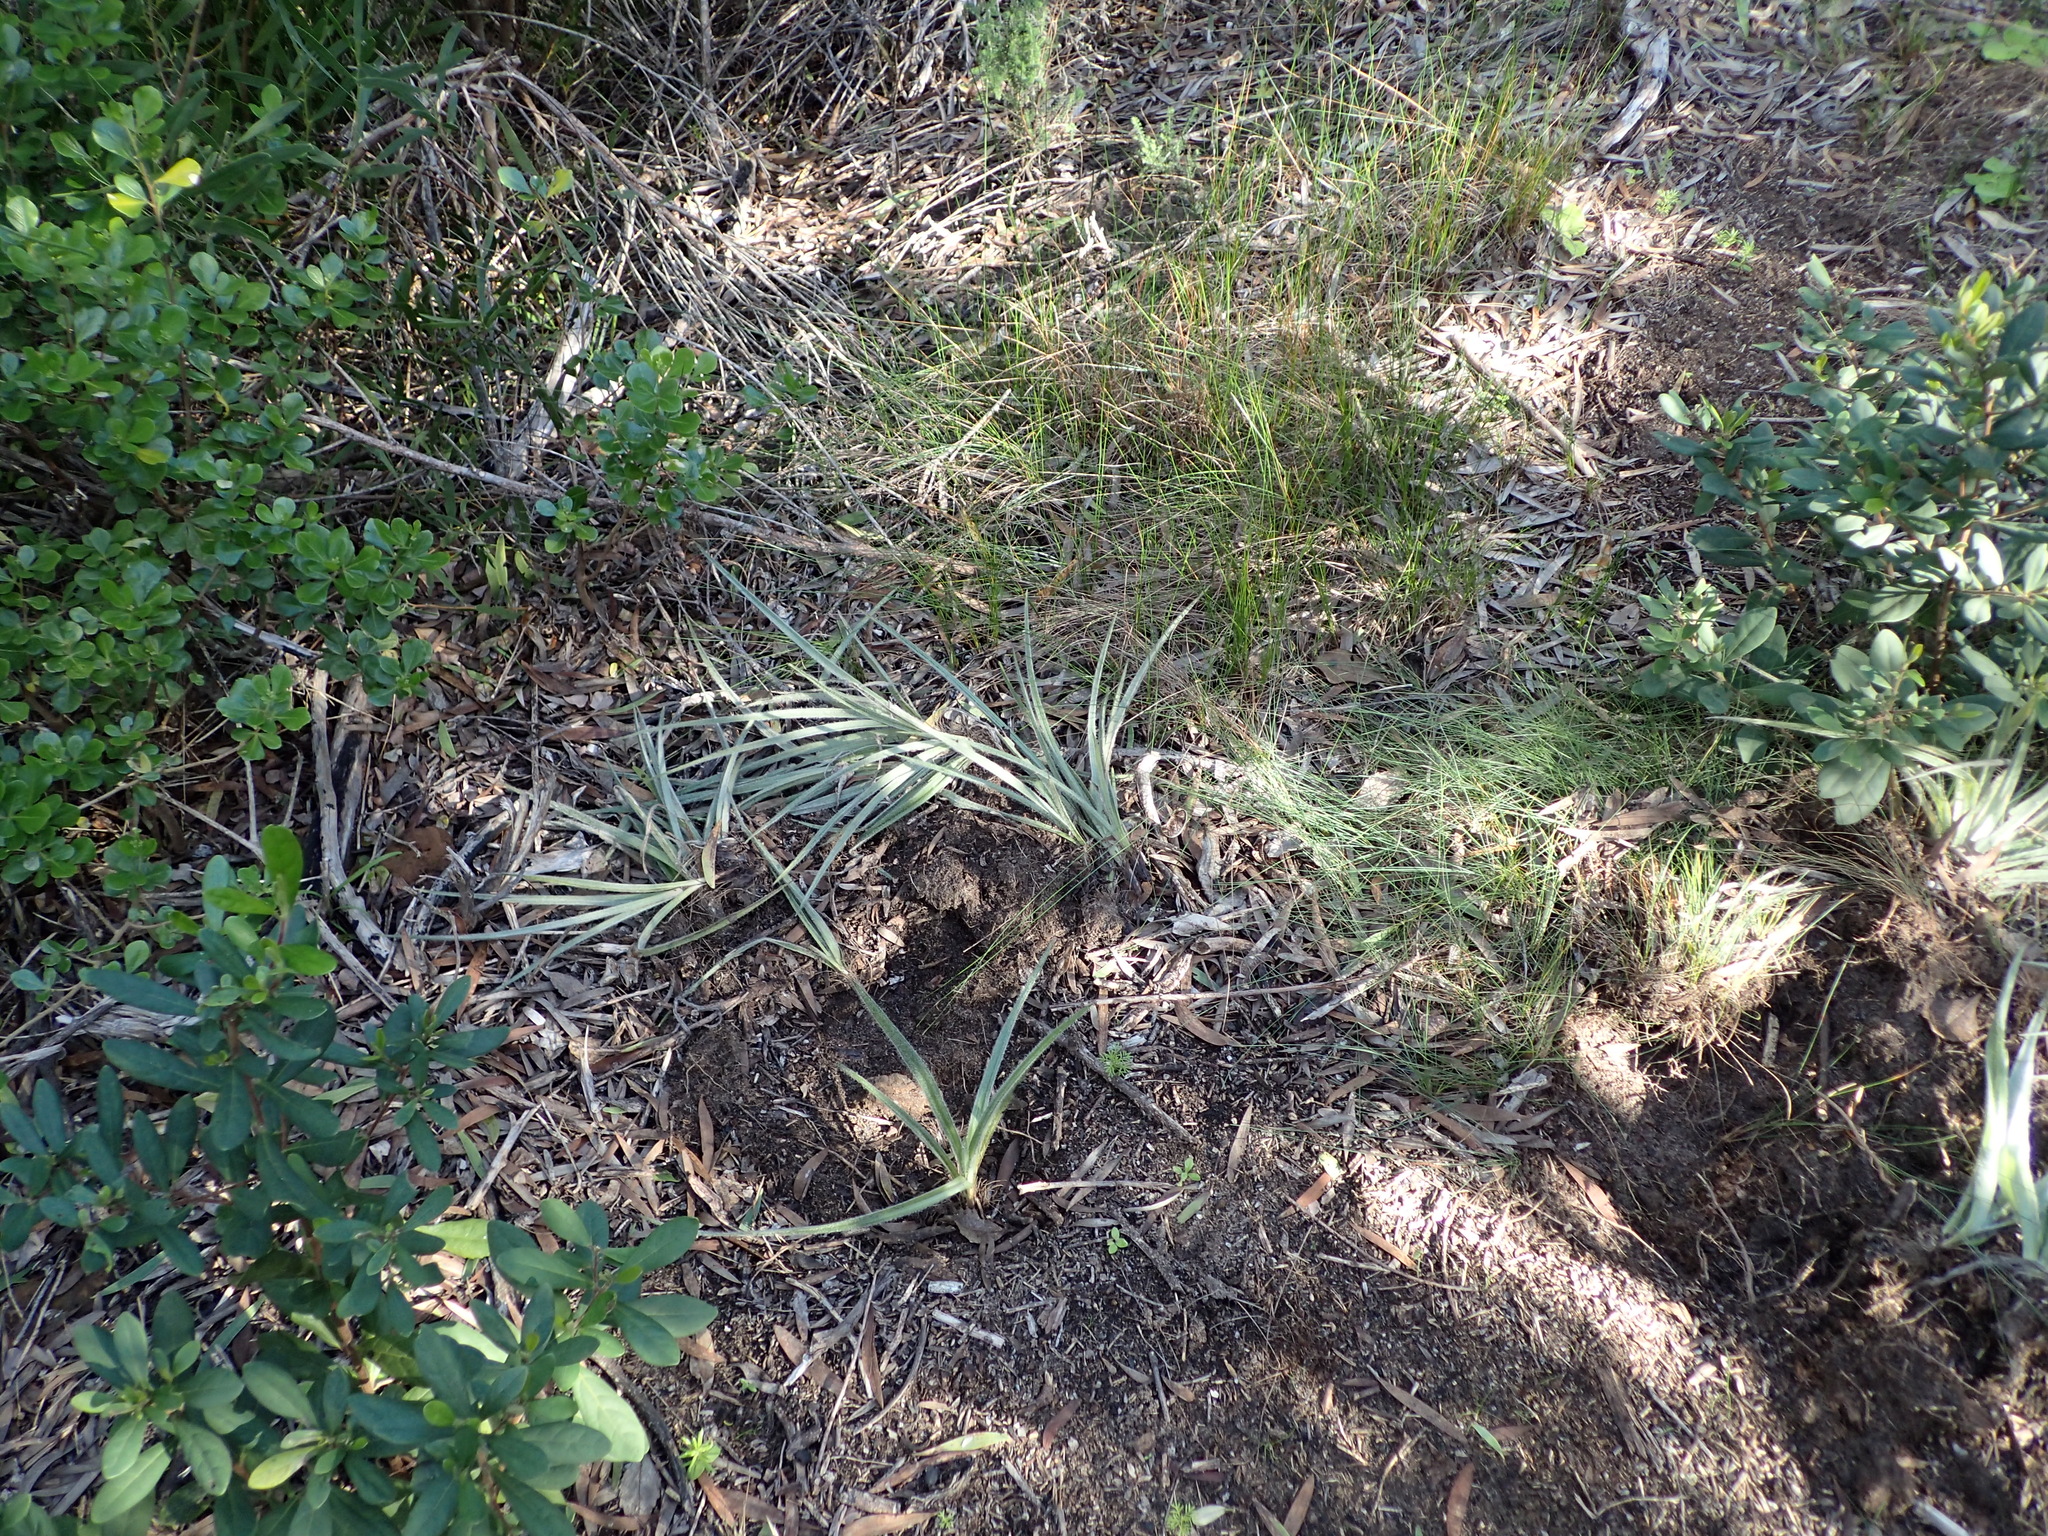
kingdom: Animalia
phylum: Chordata
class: Mammalia
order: Artiodactyla
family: Suidae
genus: Potamochoerus
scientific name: Potamochoerus larvatus
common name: Bushpig
